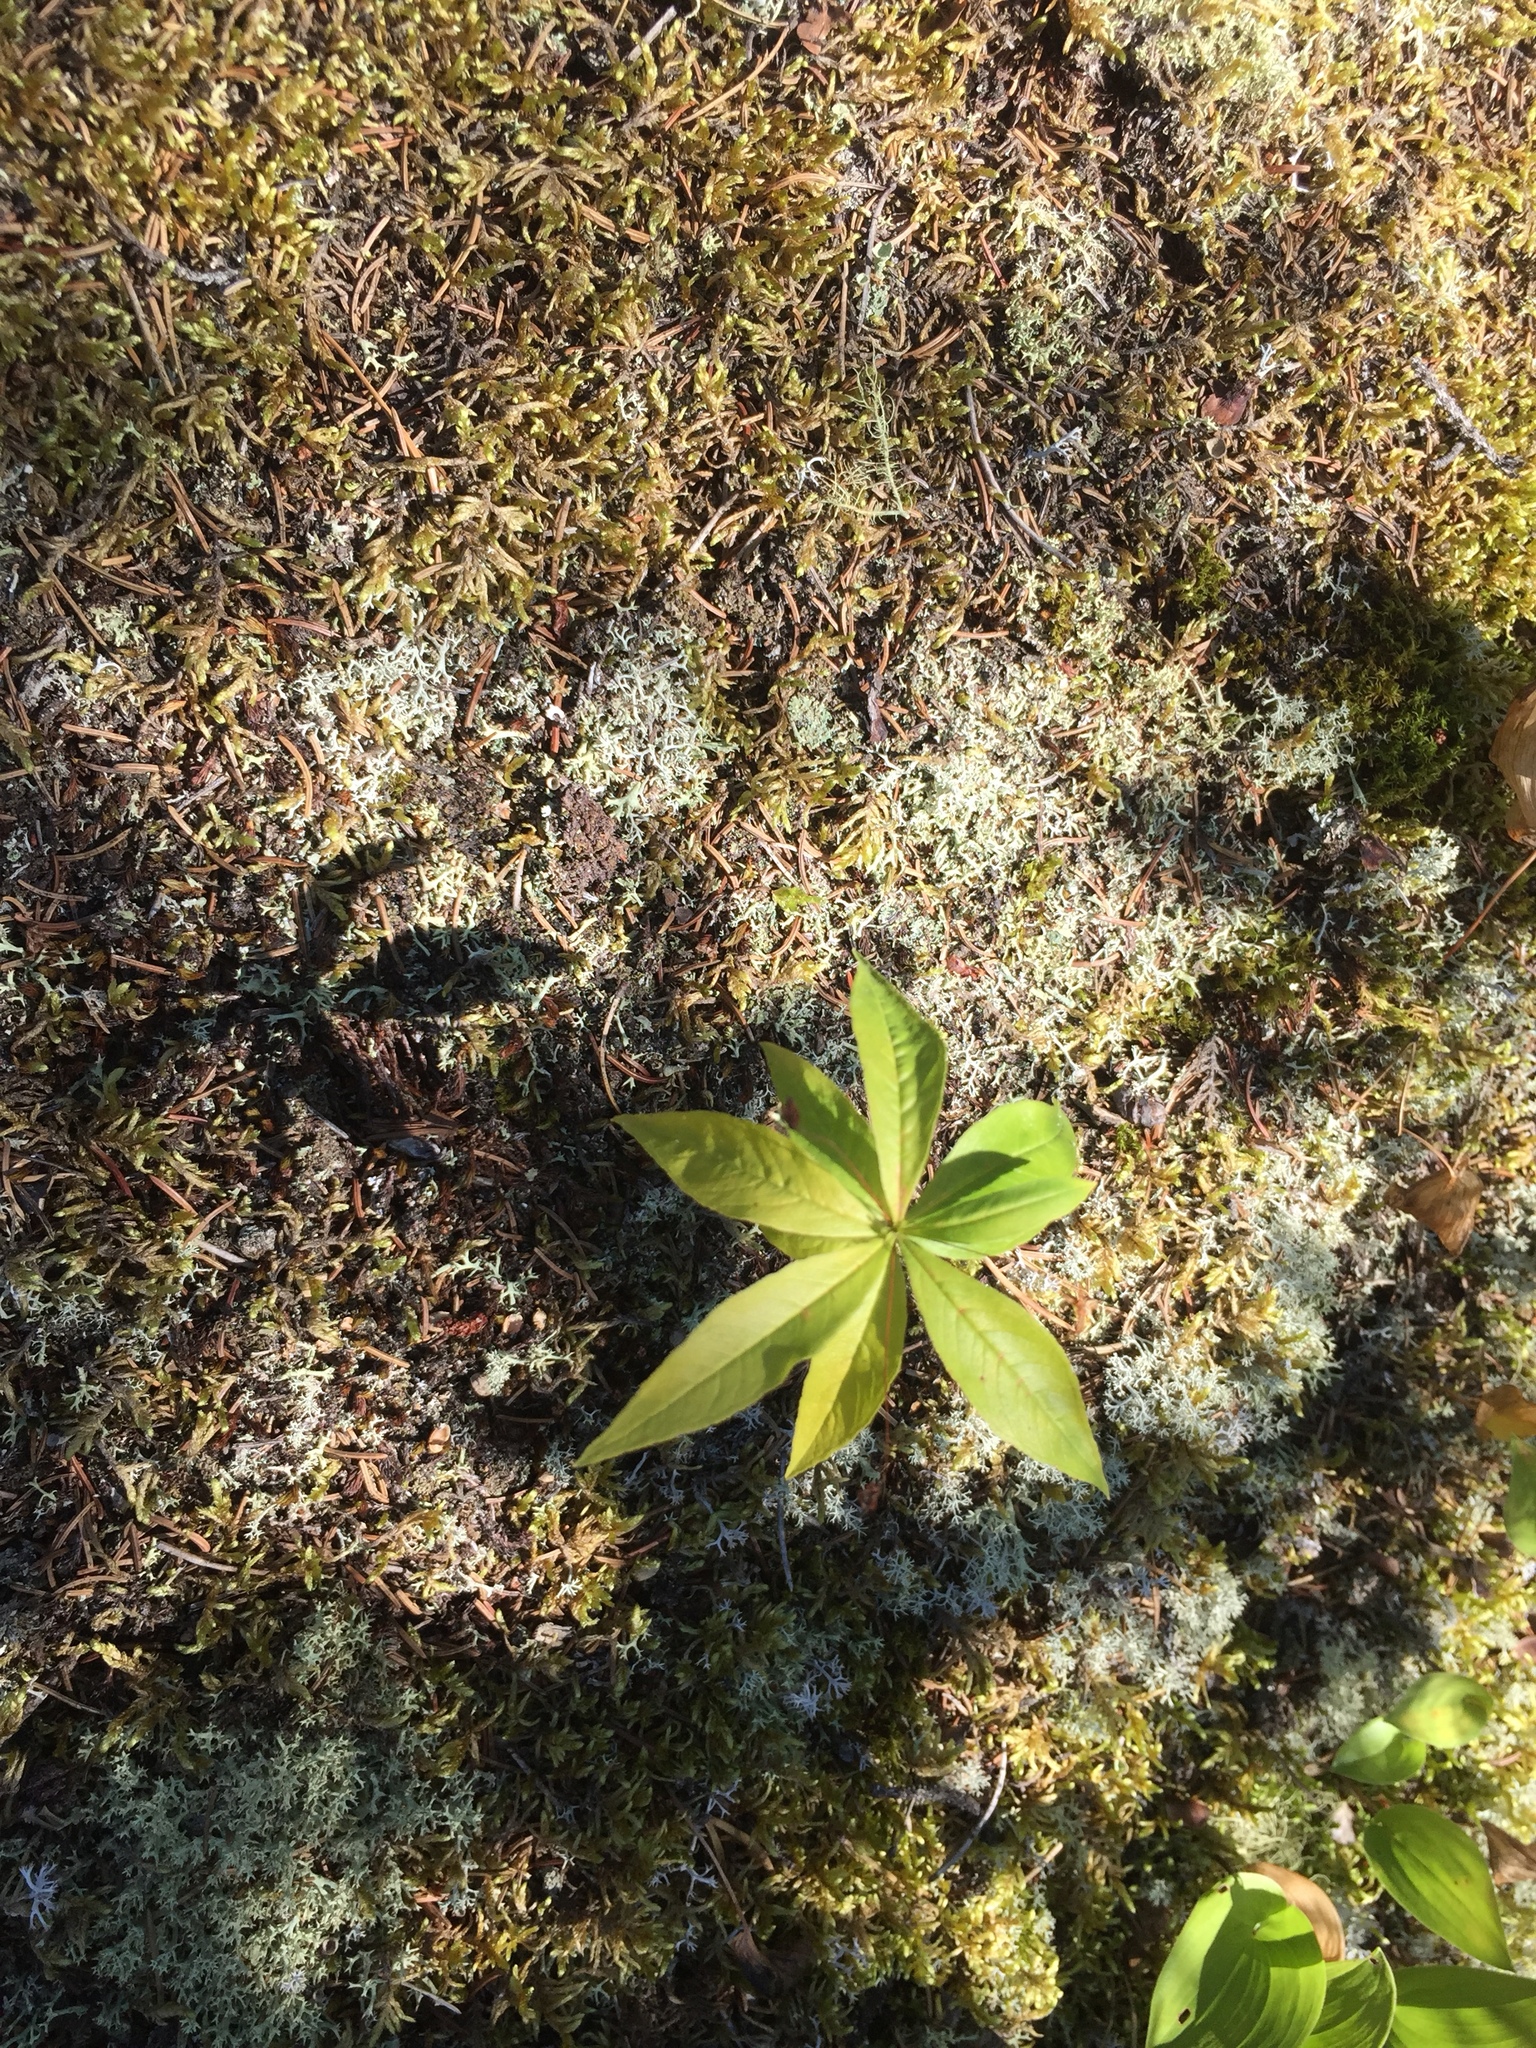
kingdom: Plantae
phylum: Tracheophyta
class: Magnoliopsida
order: Ericales
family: Primulaceae
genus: Lysimachia
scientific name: Lysimachia borealis
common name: American starflower
